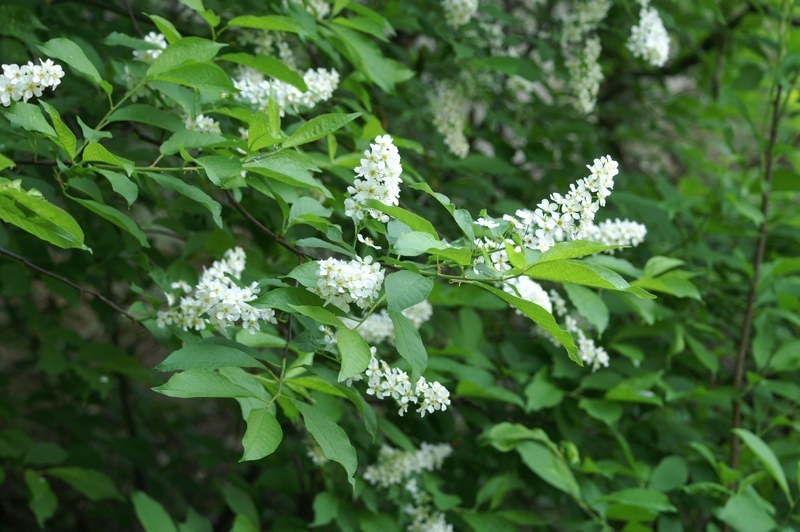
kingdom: Plantae
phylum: Tracheophyta
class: Magnoliopsida
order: Rosales
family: Rosaceae
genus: Prunus
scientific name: Prunus padus
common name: Bird cherry
